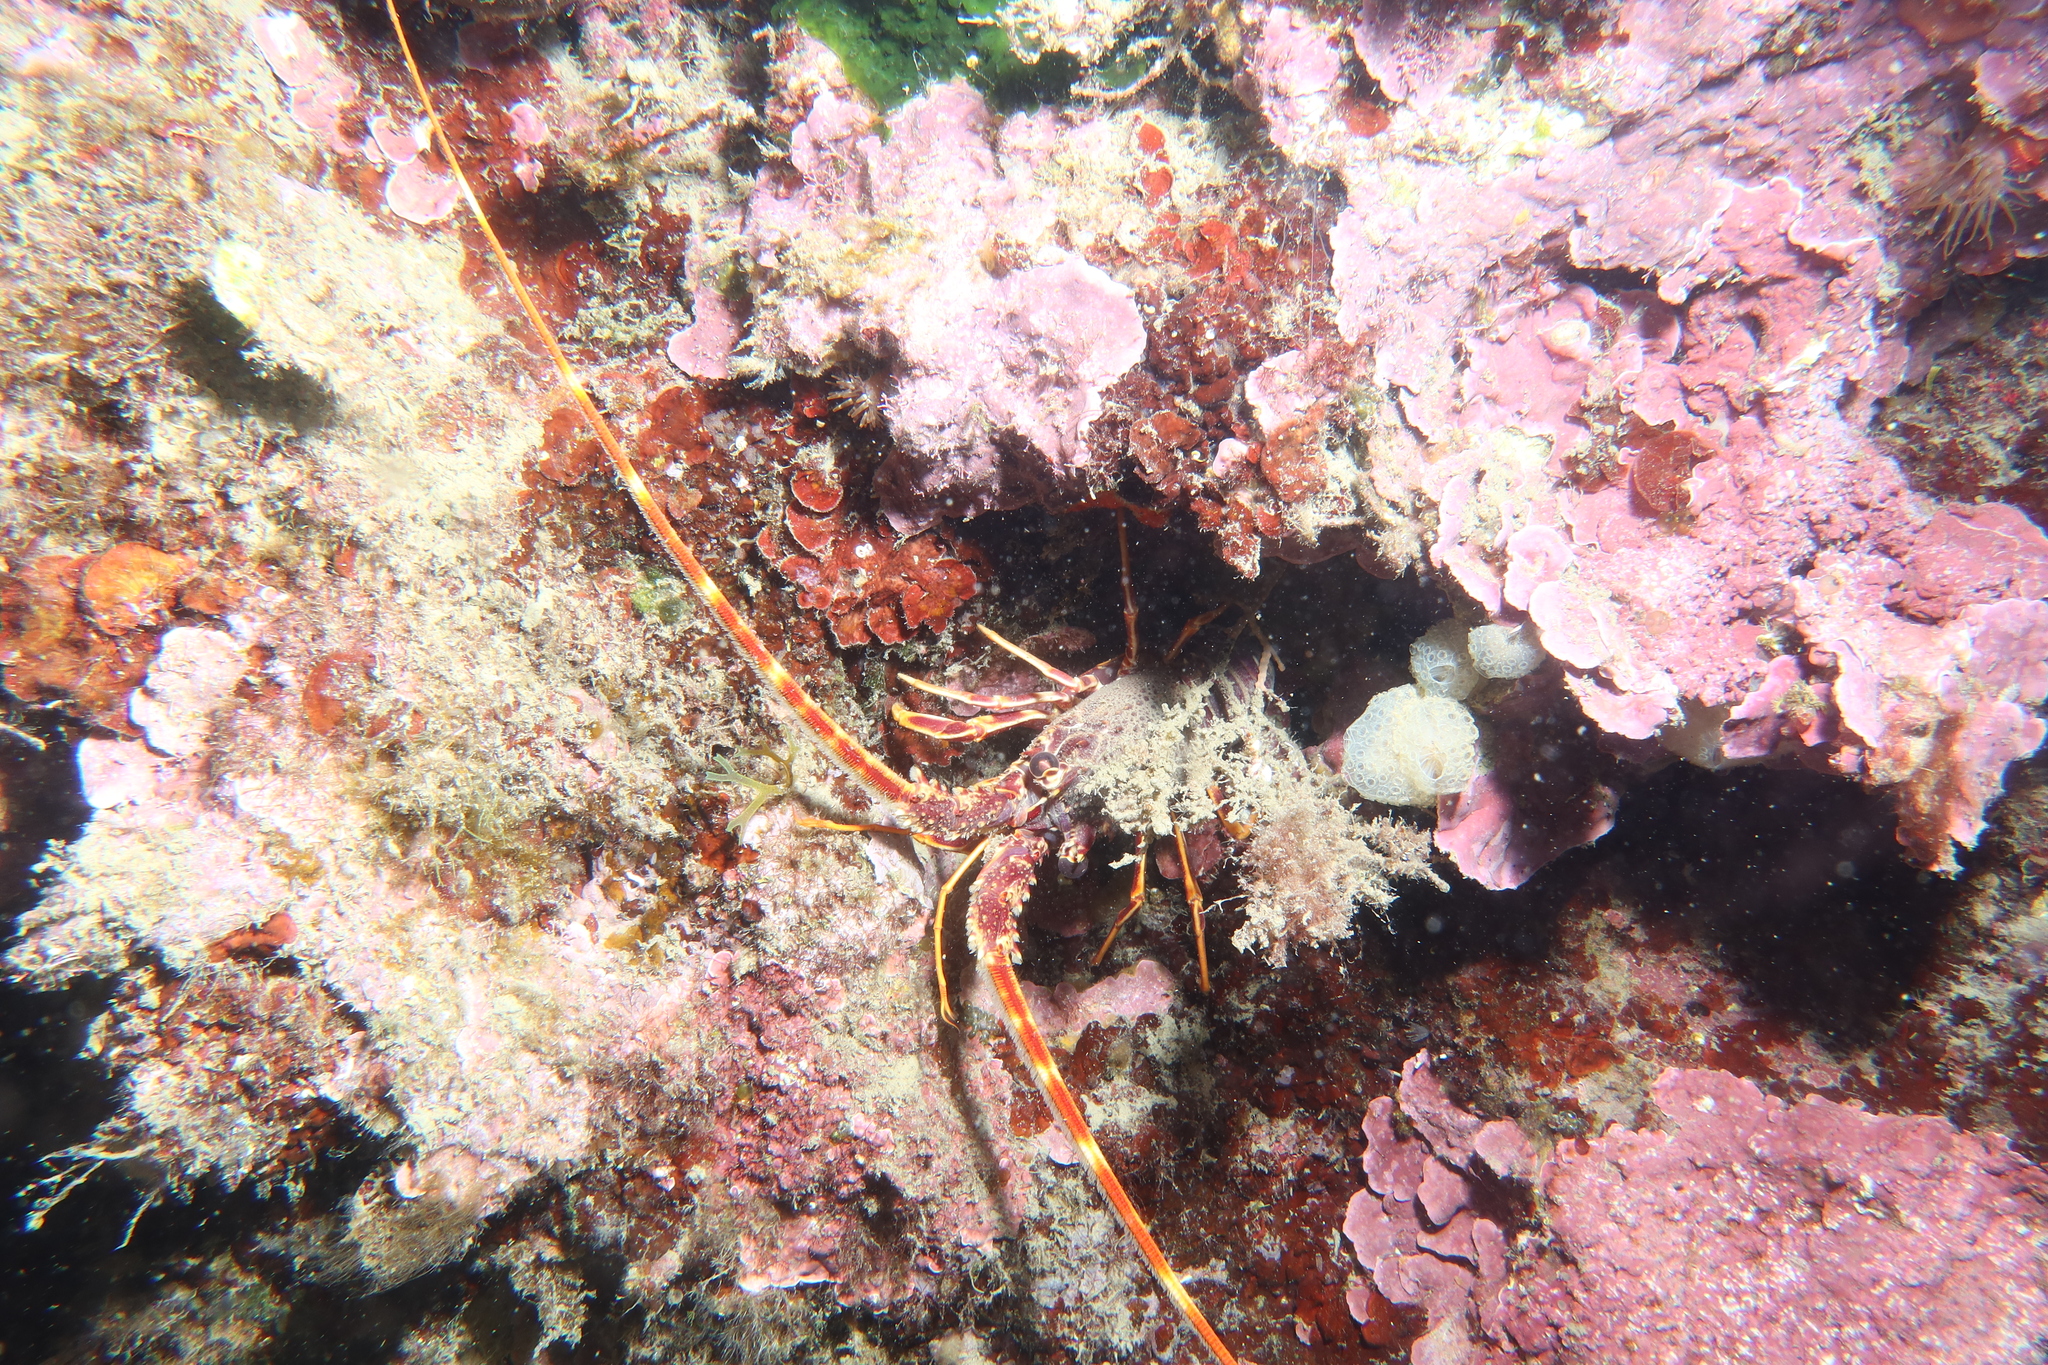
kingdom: Animalia
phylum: Arthropoda
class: Malacostraca
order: Decapoda
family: Palinuridae
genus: Palinurus
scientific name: Palinurus elephas
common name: European spiny lobster
